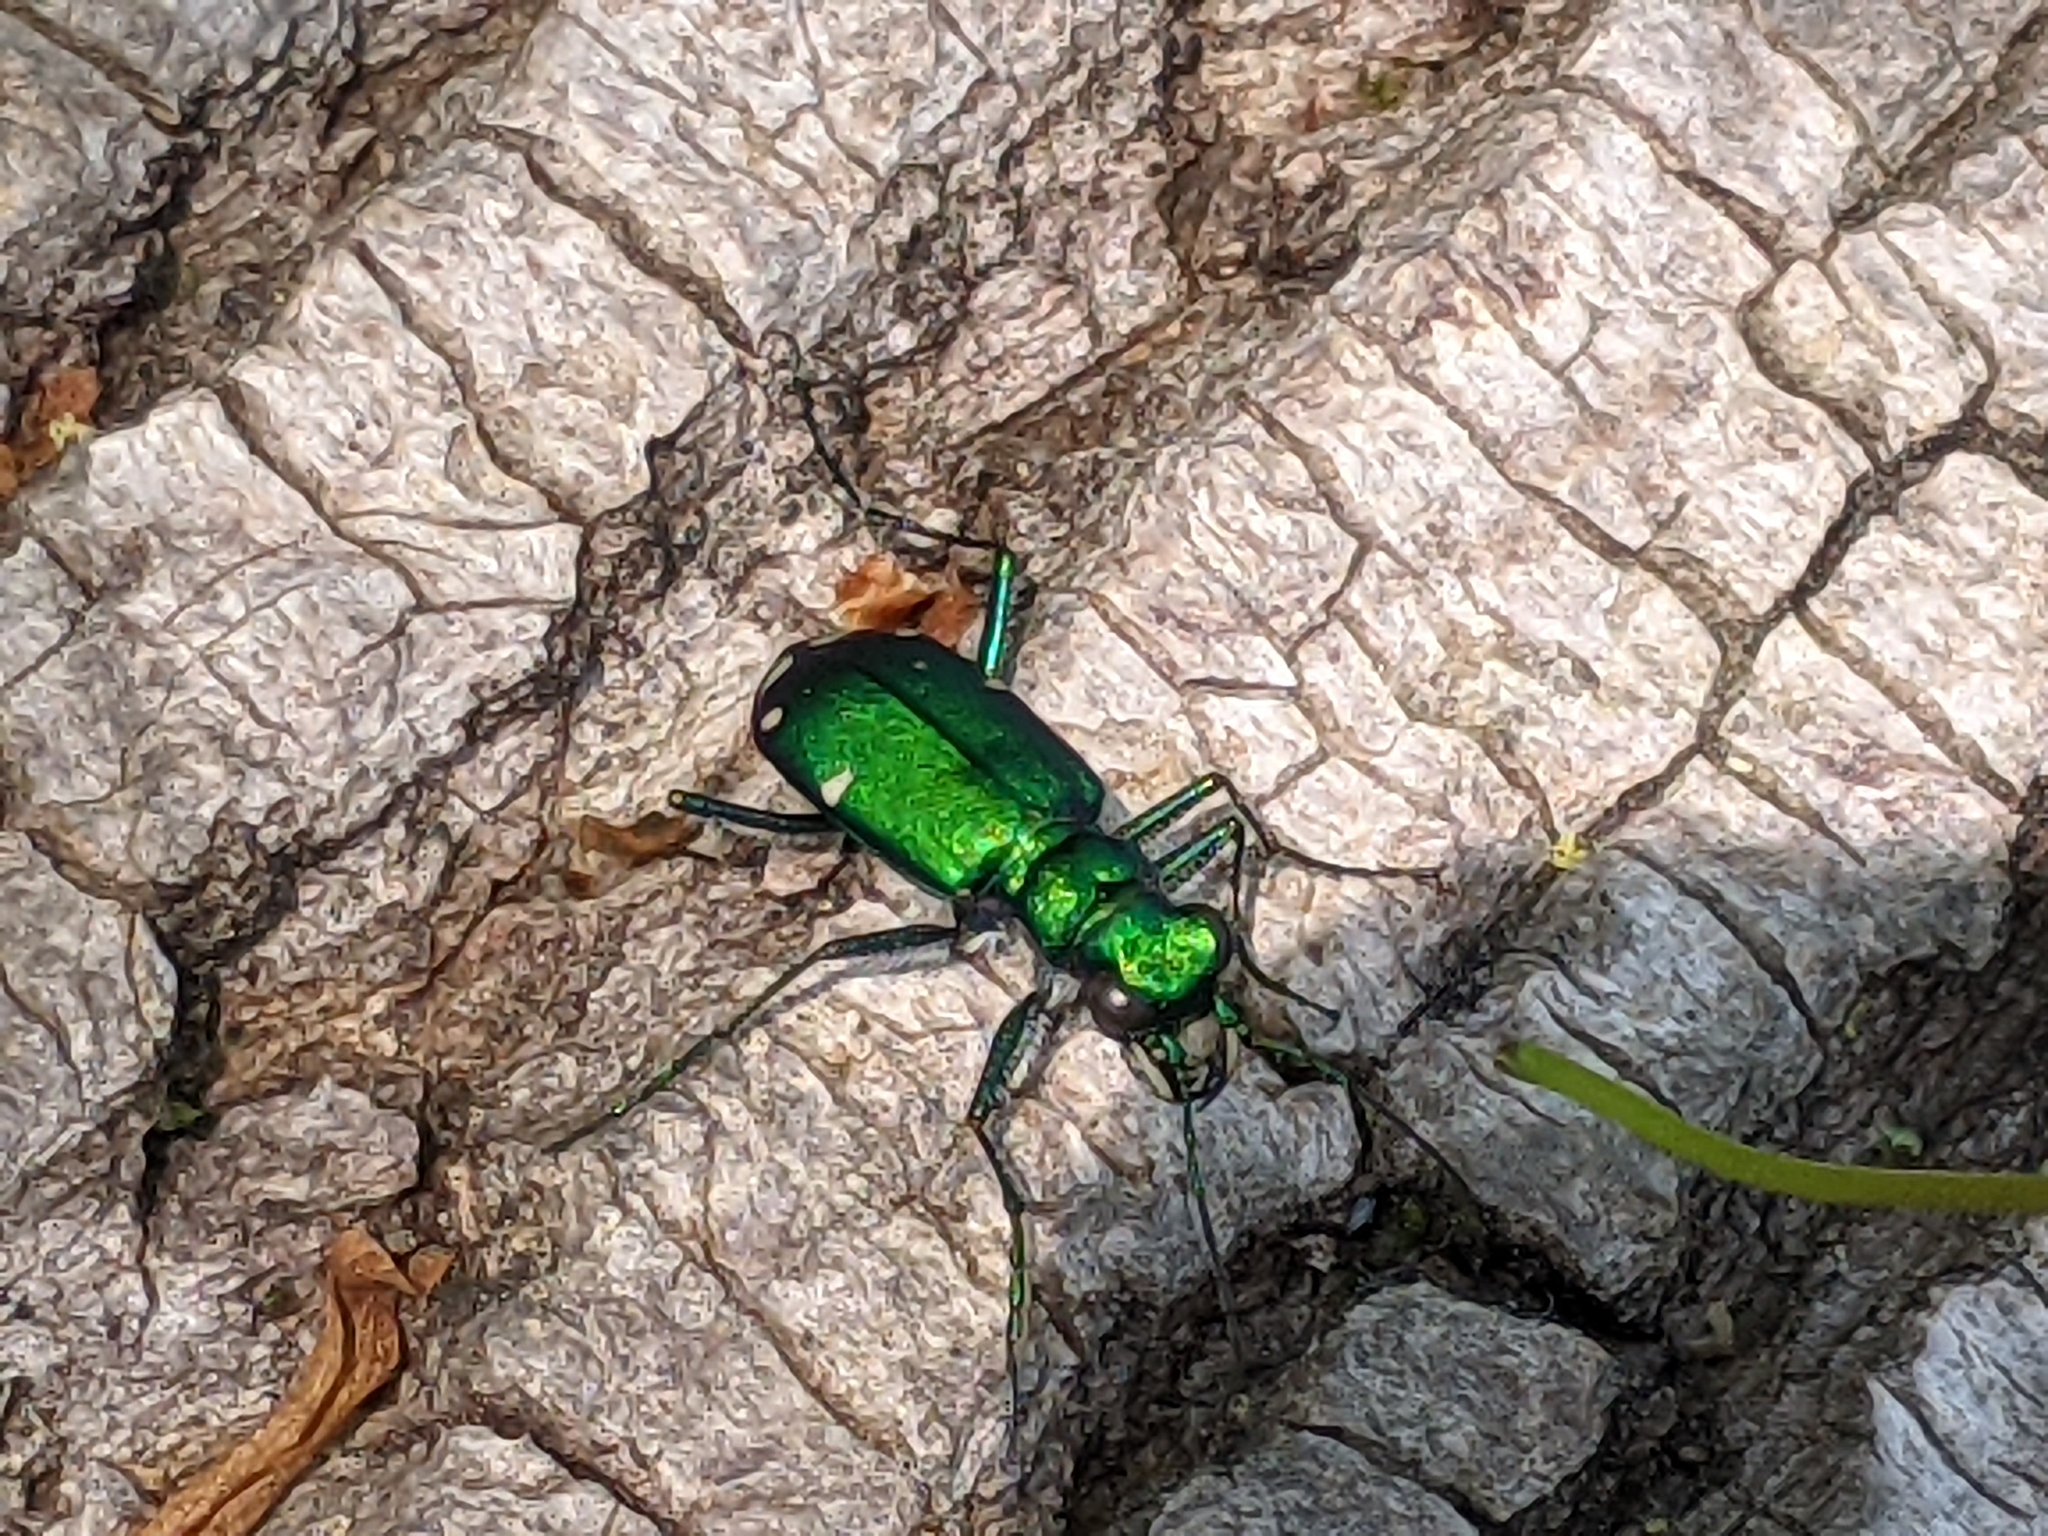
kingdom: Animalia
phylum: Arthropoda
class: Insecta
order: Coleoptera
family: Carabidae
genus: Cicindela
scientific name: Cicindela sexguttata
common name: Six-spotted tiger beetle
